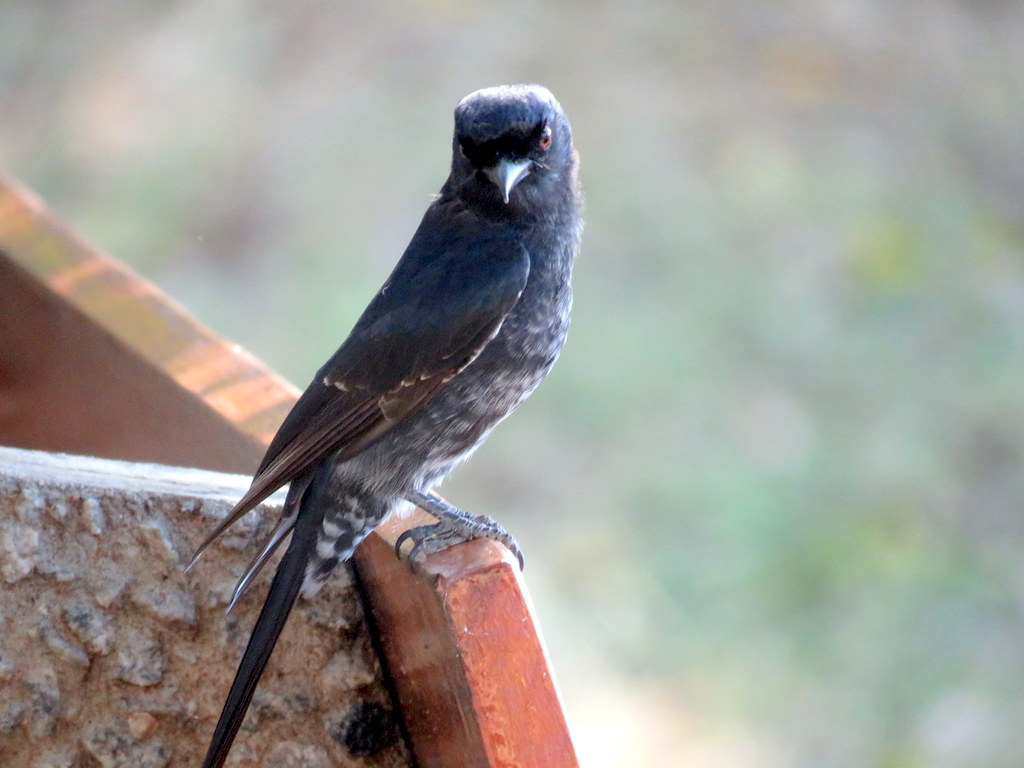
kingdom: Animalia
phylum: Chordata
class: Aves
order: Passeriformes
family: Dicruridae
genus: Dicrurus
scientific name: Dicrurus adsimilis
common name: Fork-tailed drongo
